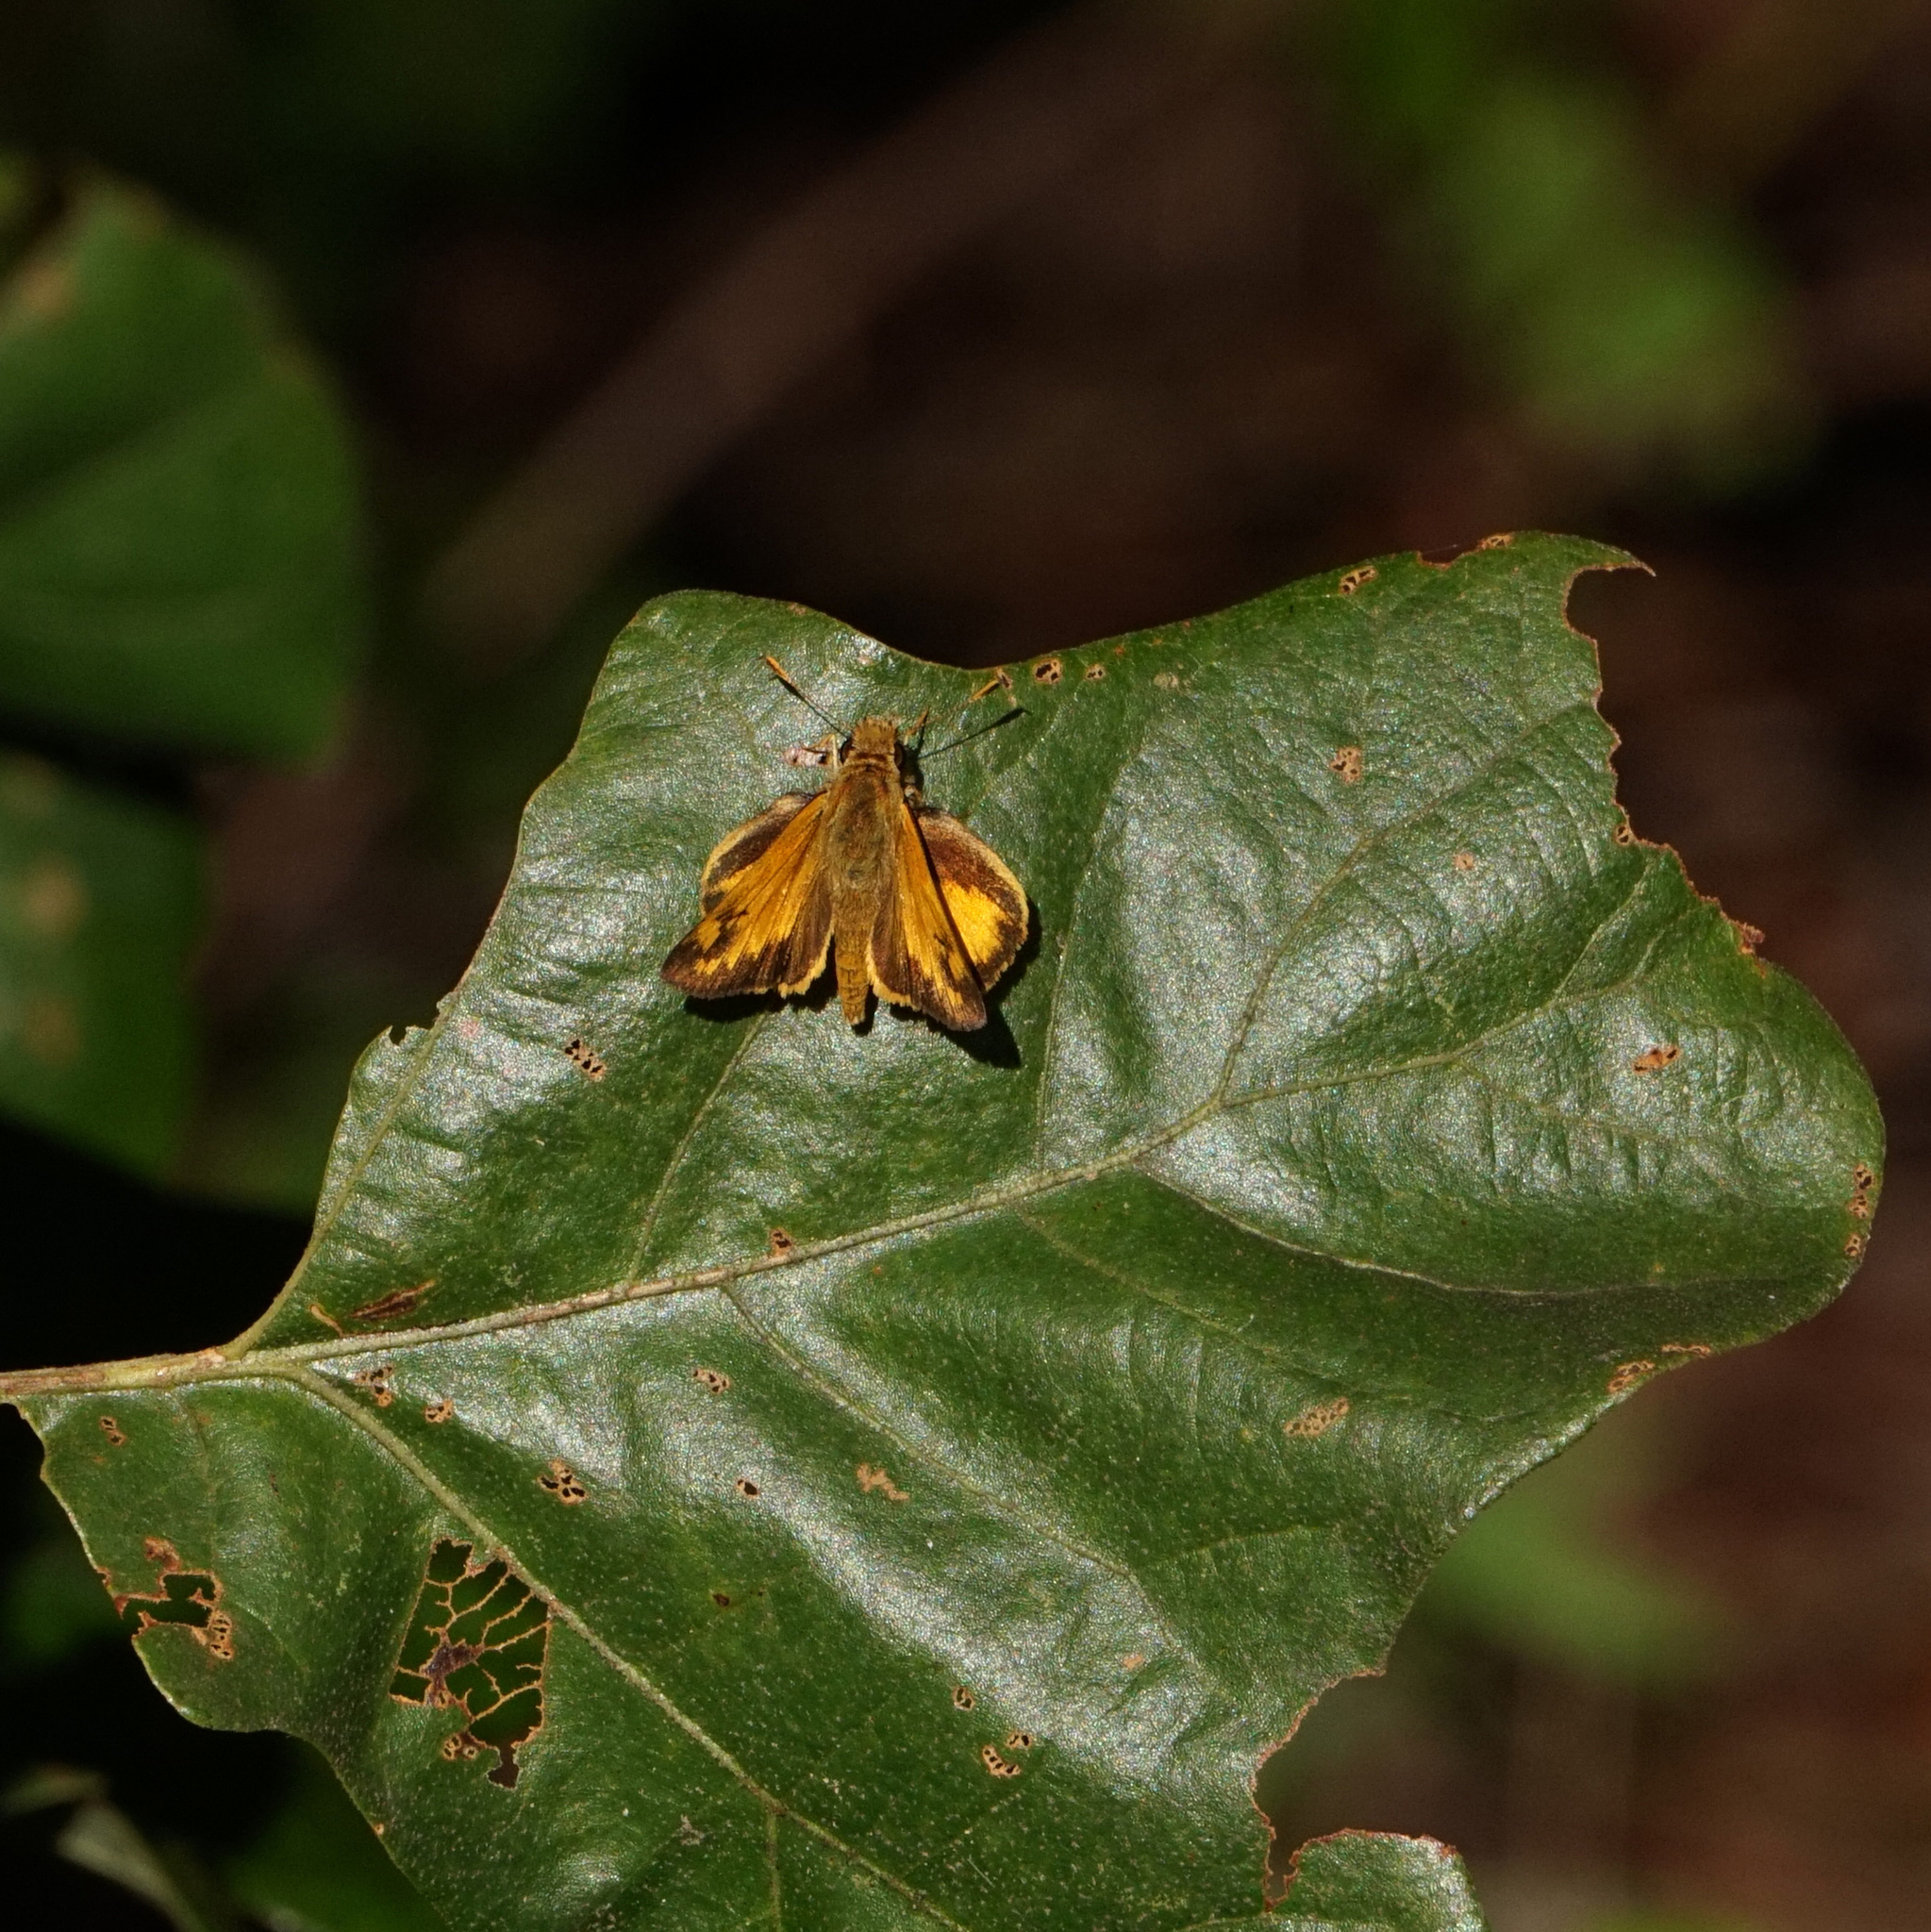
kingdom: Animalia
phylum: Arthropoda
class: Insecta
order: Lepidoptera
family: Hesperiidae
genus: Lon
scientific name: Lon zabulon
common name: Zabulon skipper
